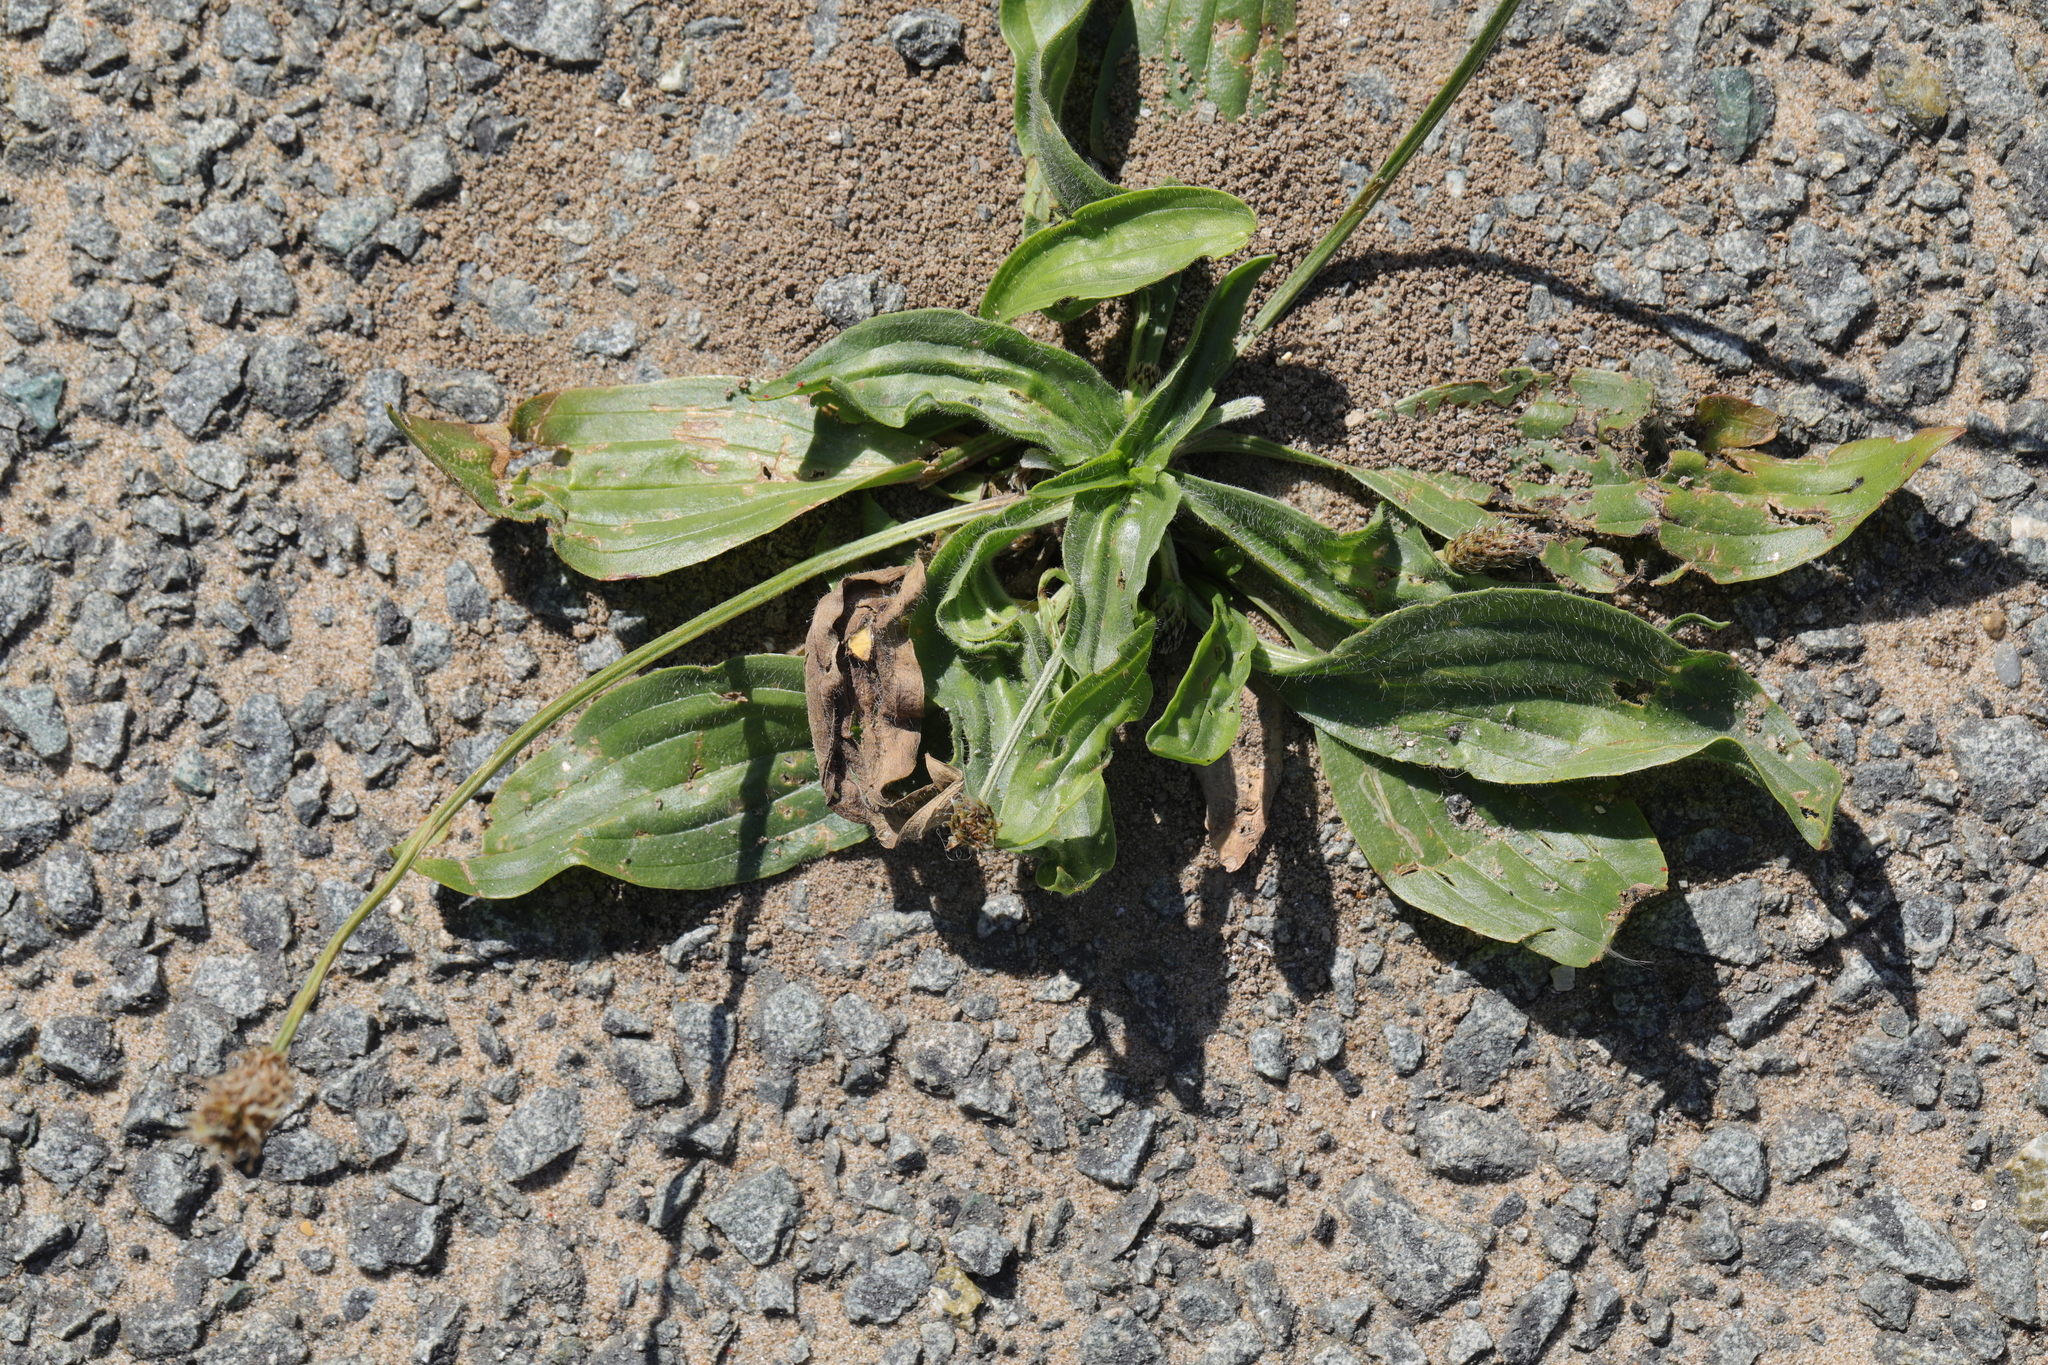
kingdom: Plantae
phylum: Tracheophyta
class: Magnoliopsida
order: Lamiales
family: Plantaginaceae
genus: Plantago
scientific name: Plantago lanceolata
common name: Ribwort plantain
